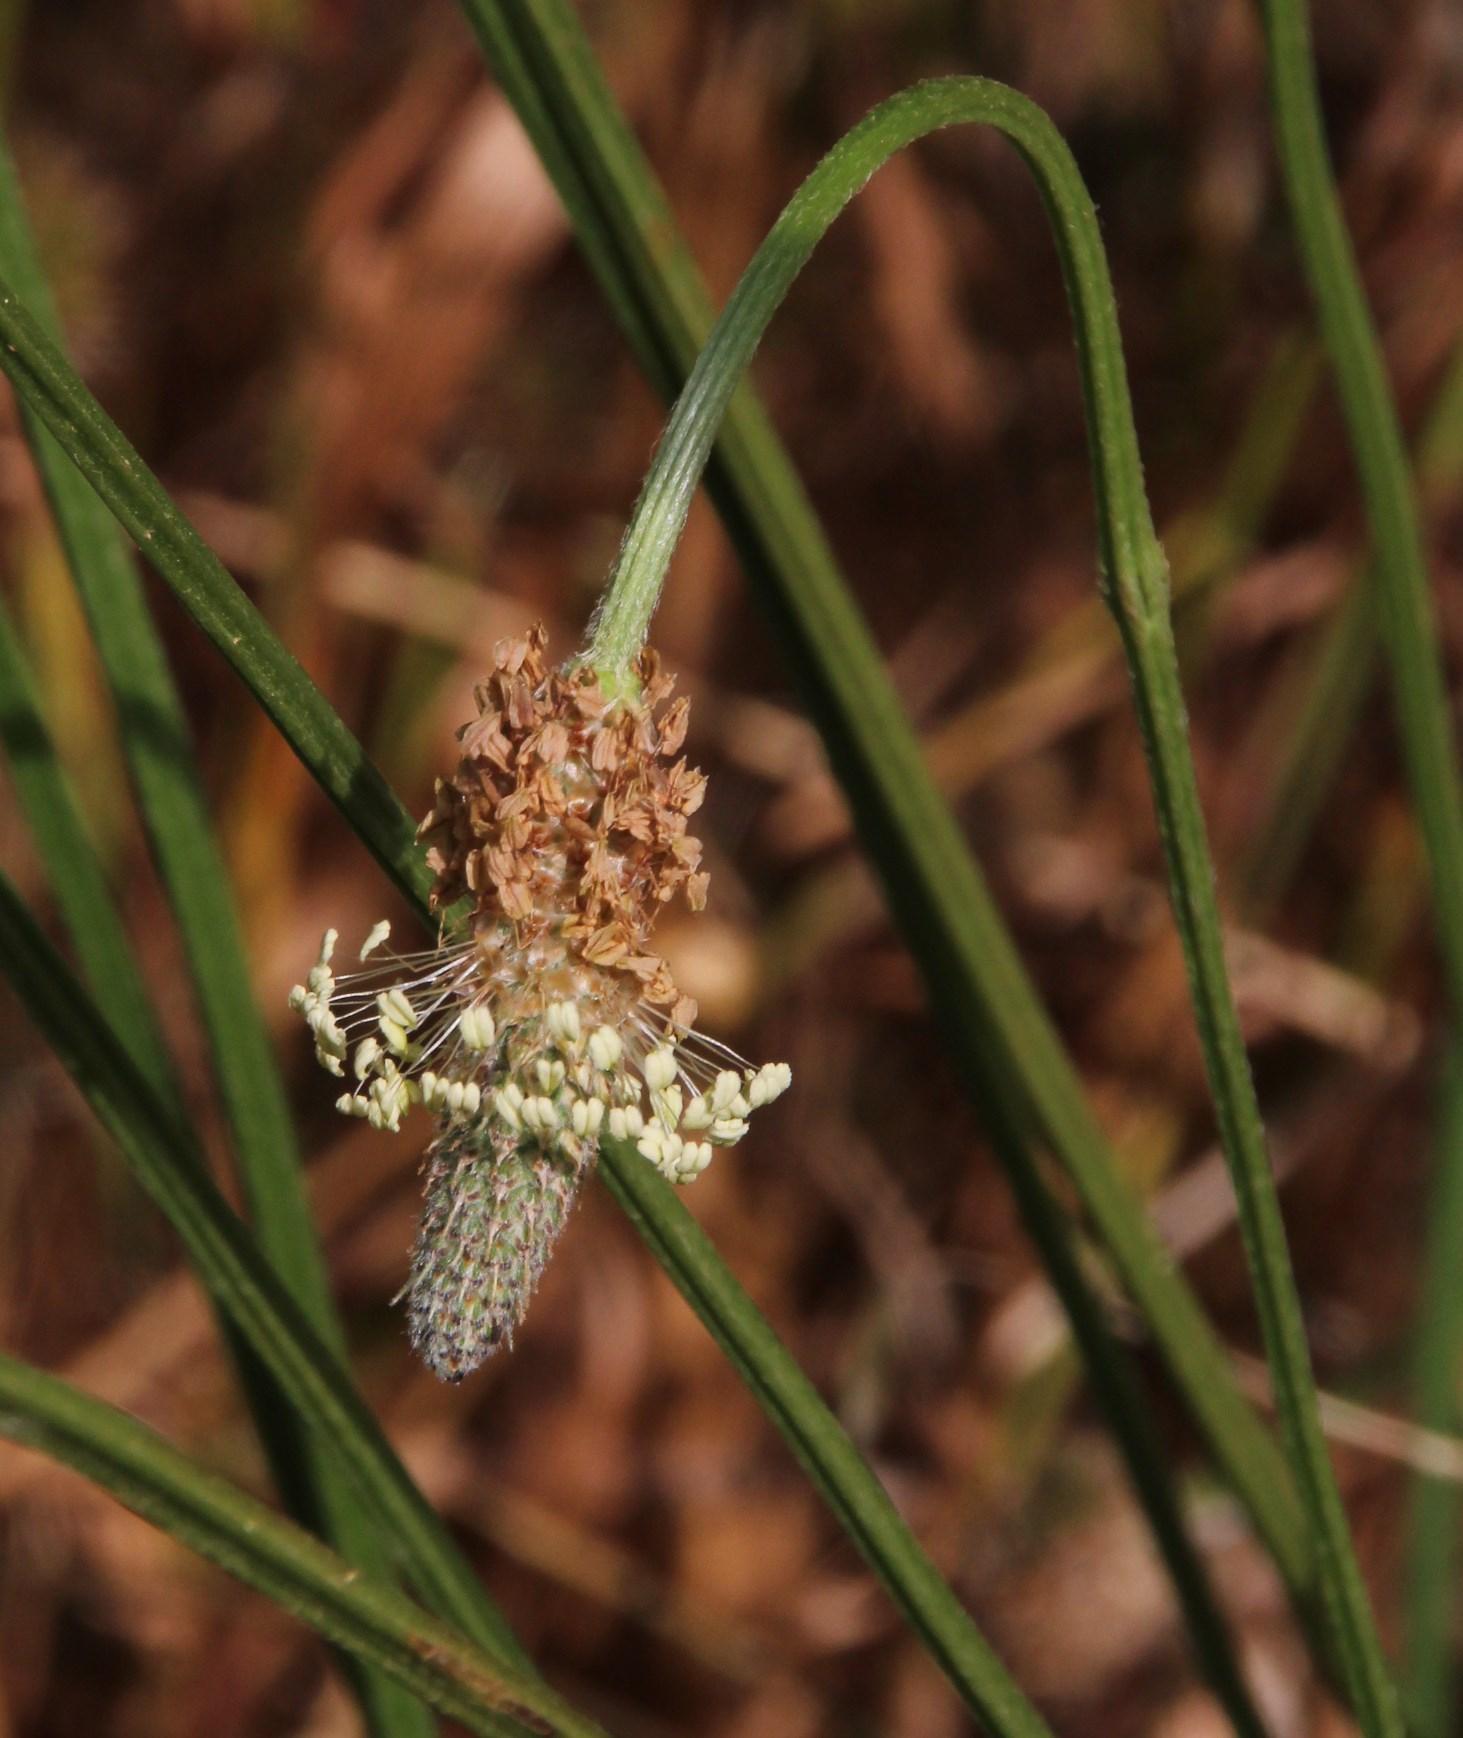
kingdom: Plantae
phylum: Tracheophyta
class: Magnoliopsida
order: Lamiales
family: Plantaginaceae
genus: Plantago
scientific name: Plantago lanceolata
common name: Ribwort plantain
